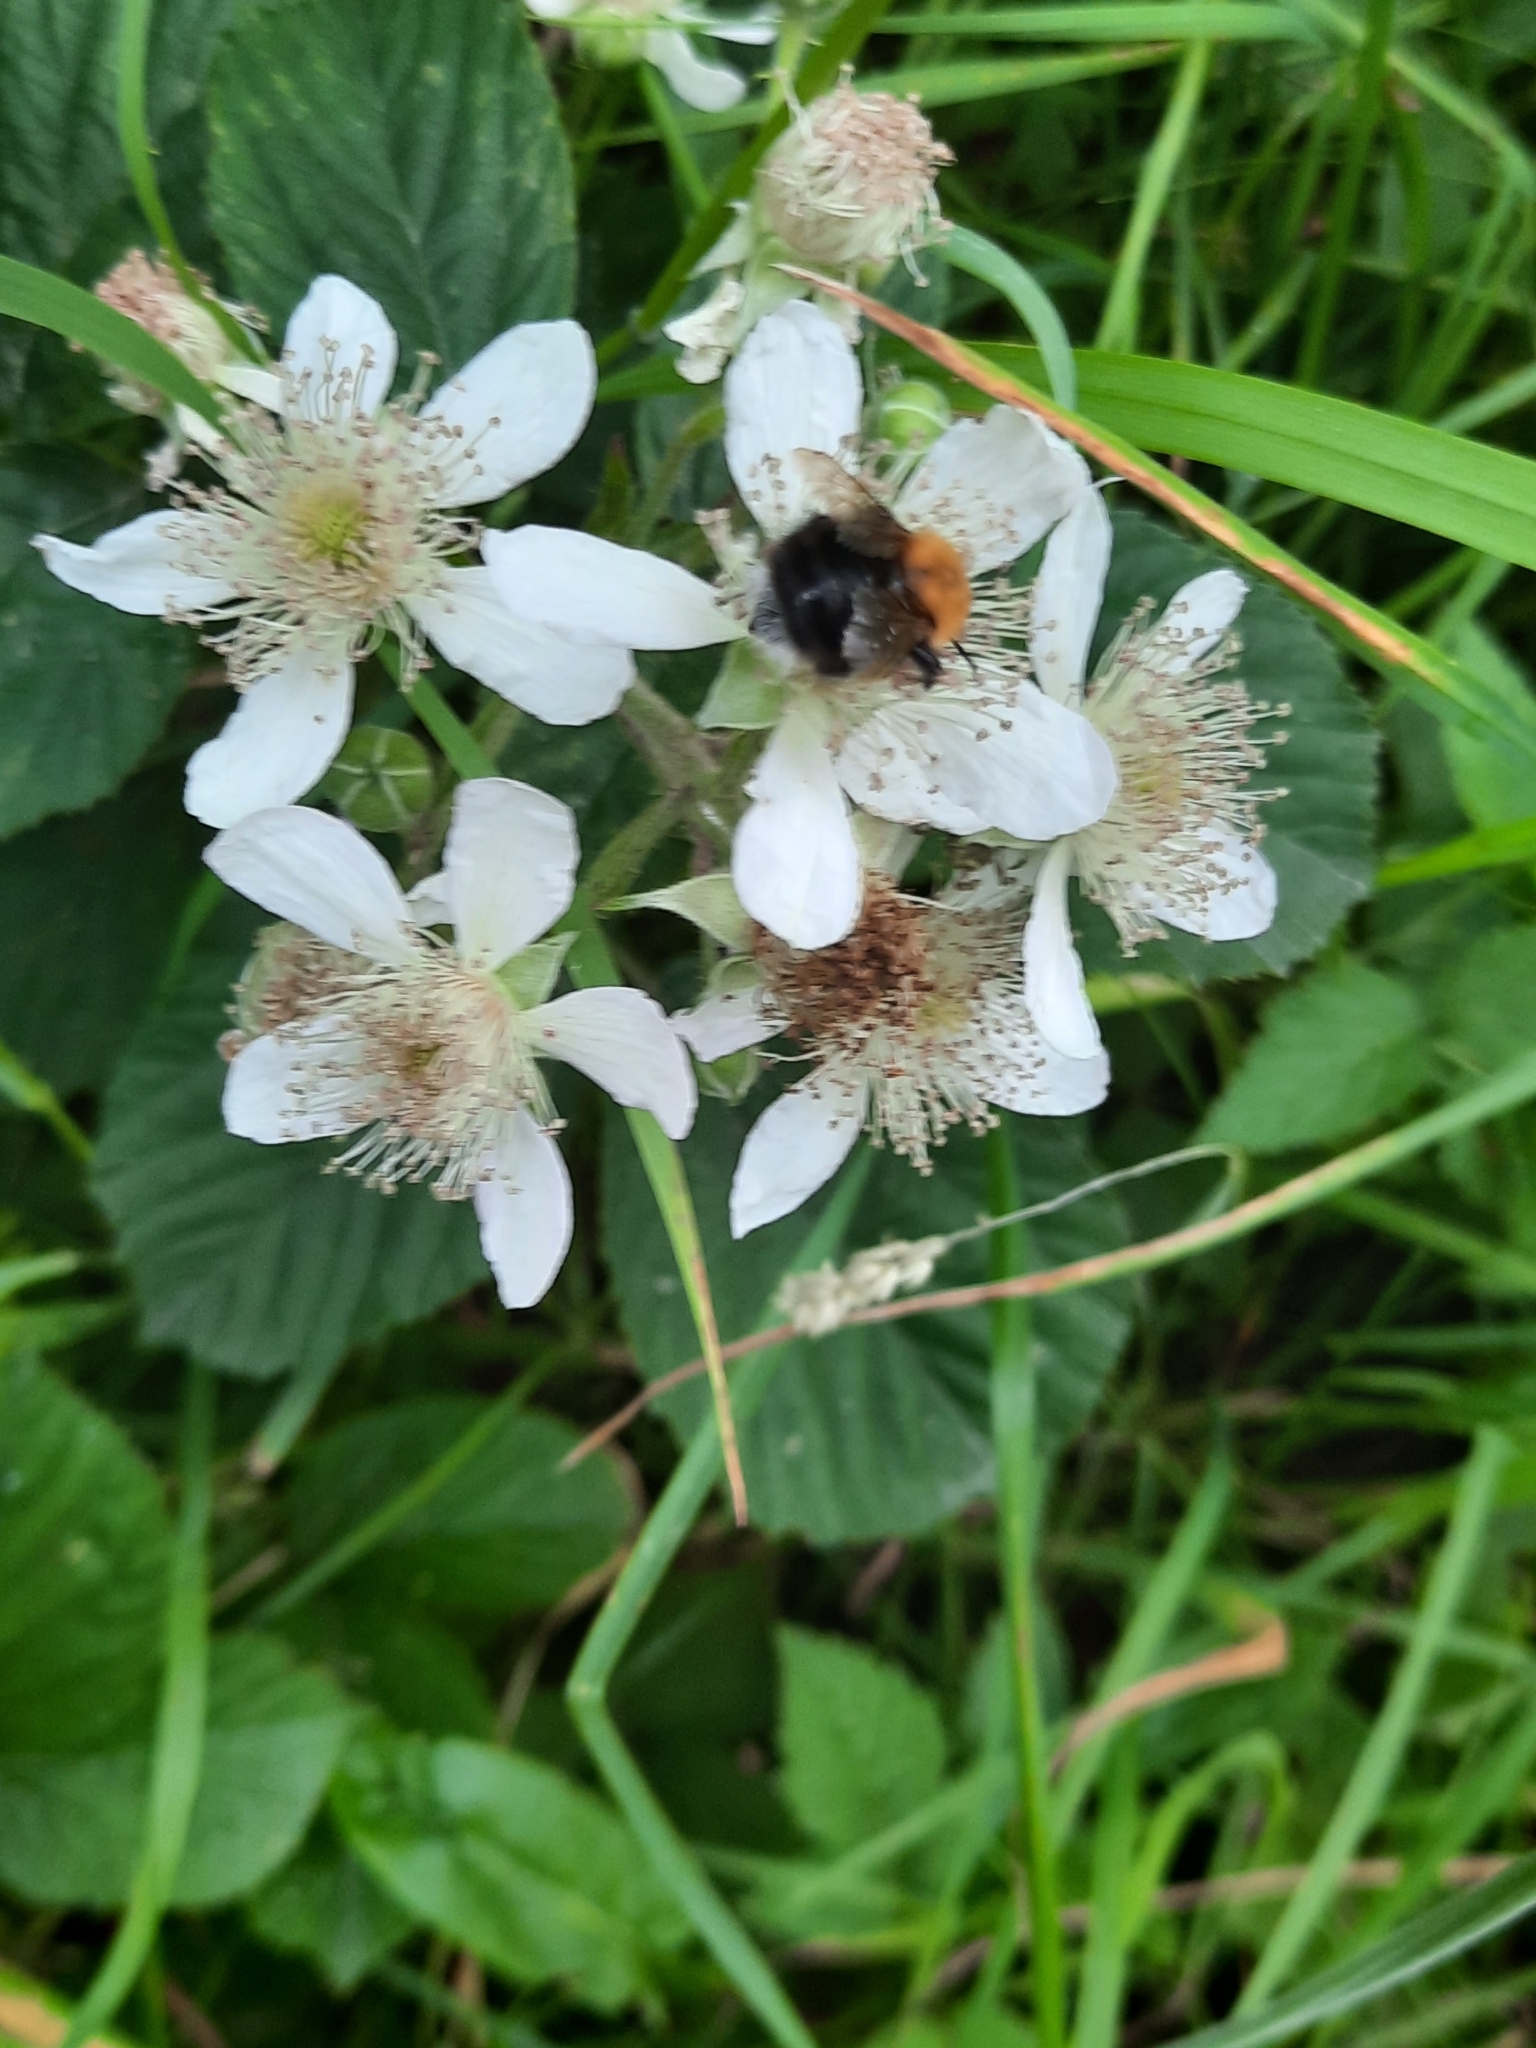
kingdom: Animalia
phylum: Arthropoda
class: Insecta
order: Hymenoptera
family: Apidae
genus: Bombus
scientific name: Bombus hypnorum
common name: New garden bumblebee
